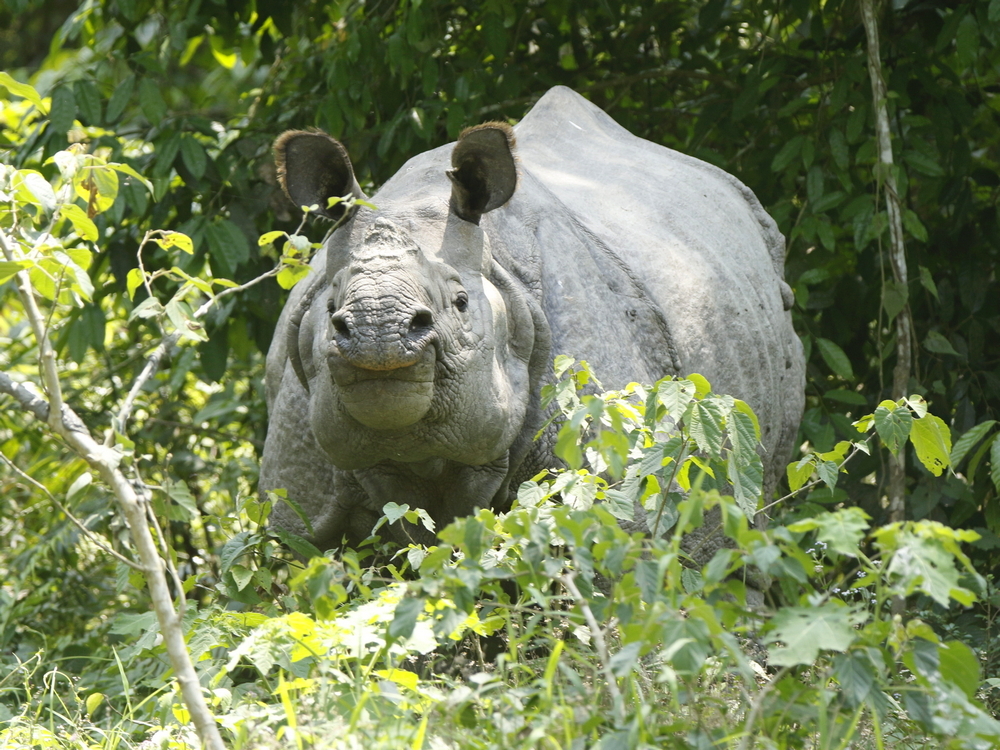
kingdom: Animalia
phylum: Chordata
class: Mammalia
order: Perissodactyla
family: Rhinocerotidae
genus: Rhinoceros
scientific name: Rhinoceros unicornis
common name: Indian rhinoceros
